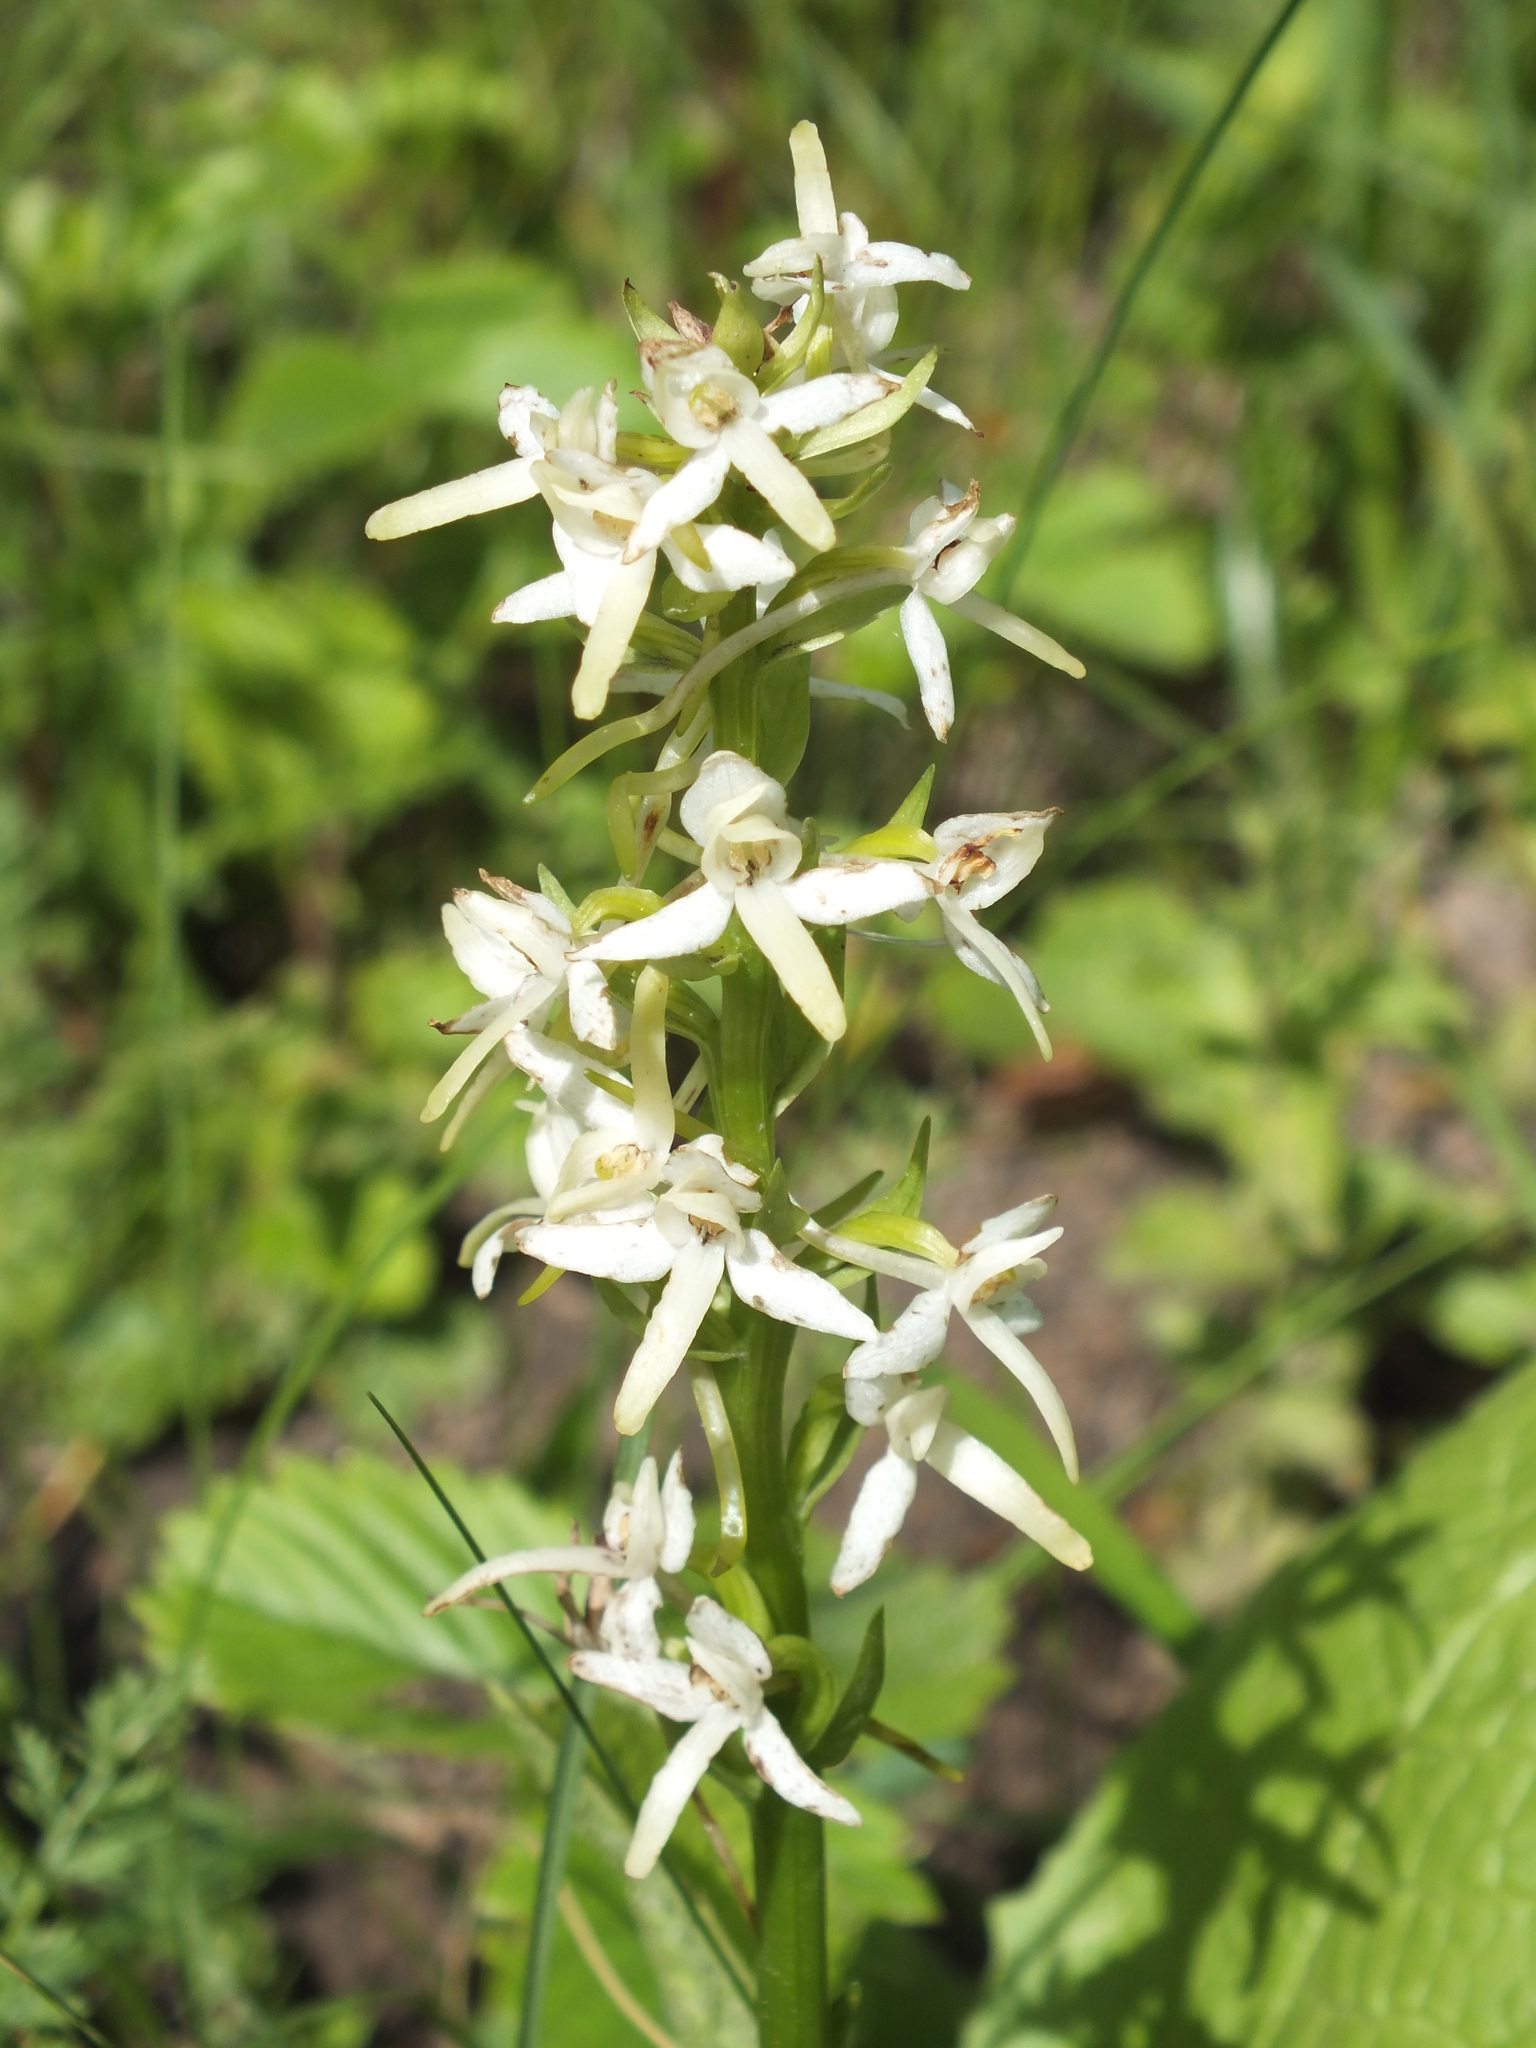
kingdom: Plantae
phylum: Tracheophyta
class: Liliopsida
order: Asparagales
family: Orchidaceae
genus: Platanthera
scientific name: Platanthera bifolia
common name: Lesser butterfly-orchid
